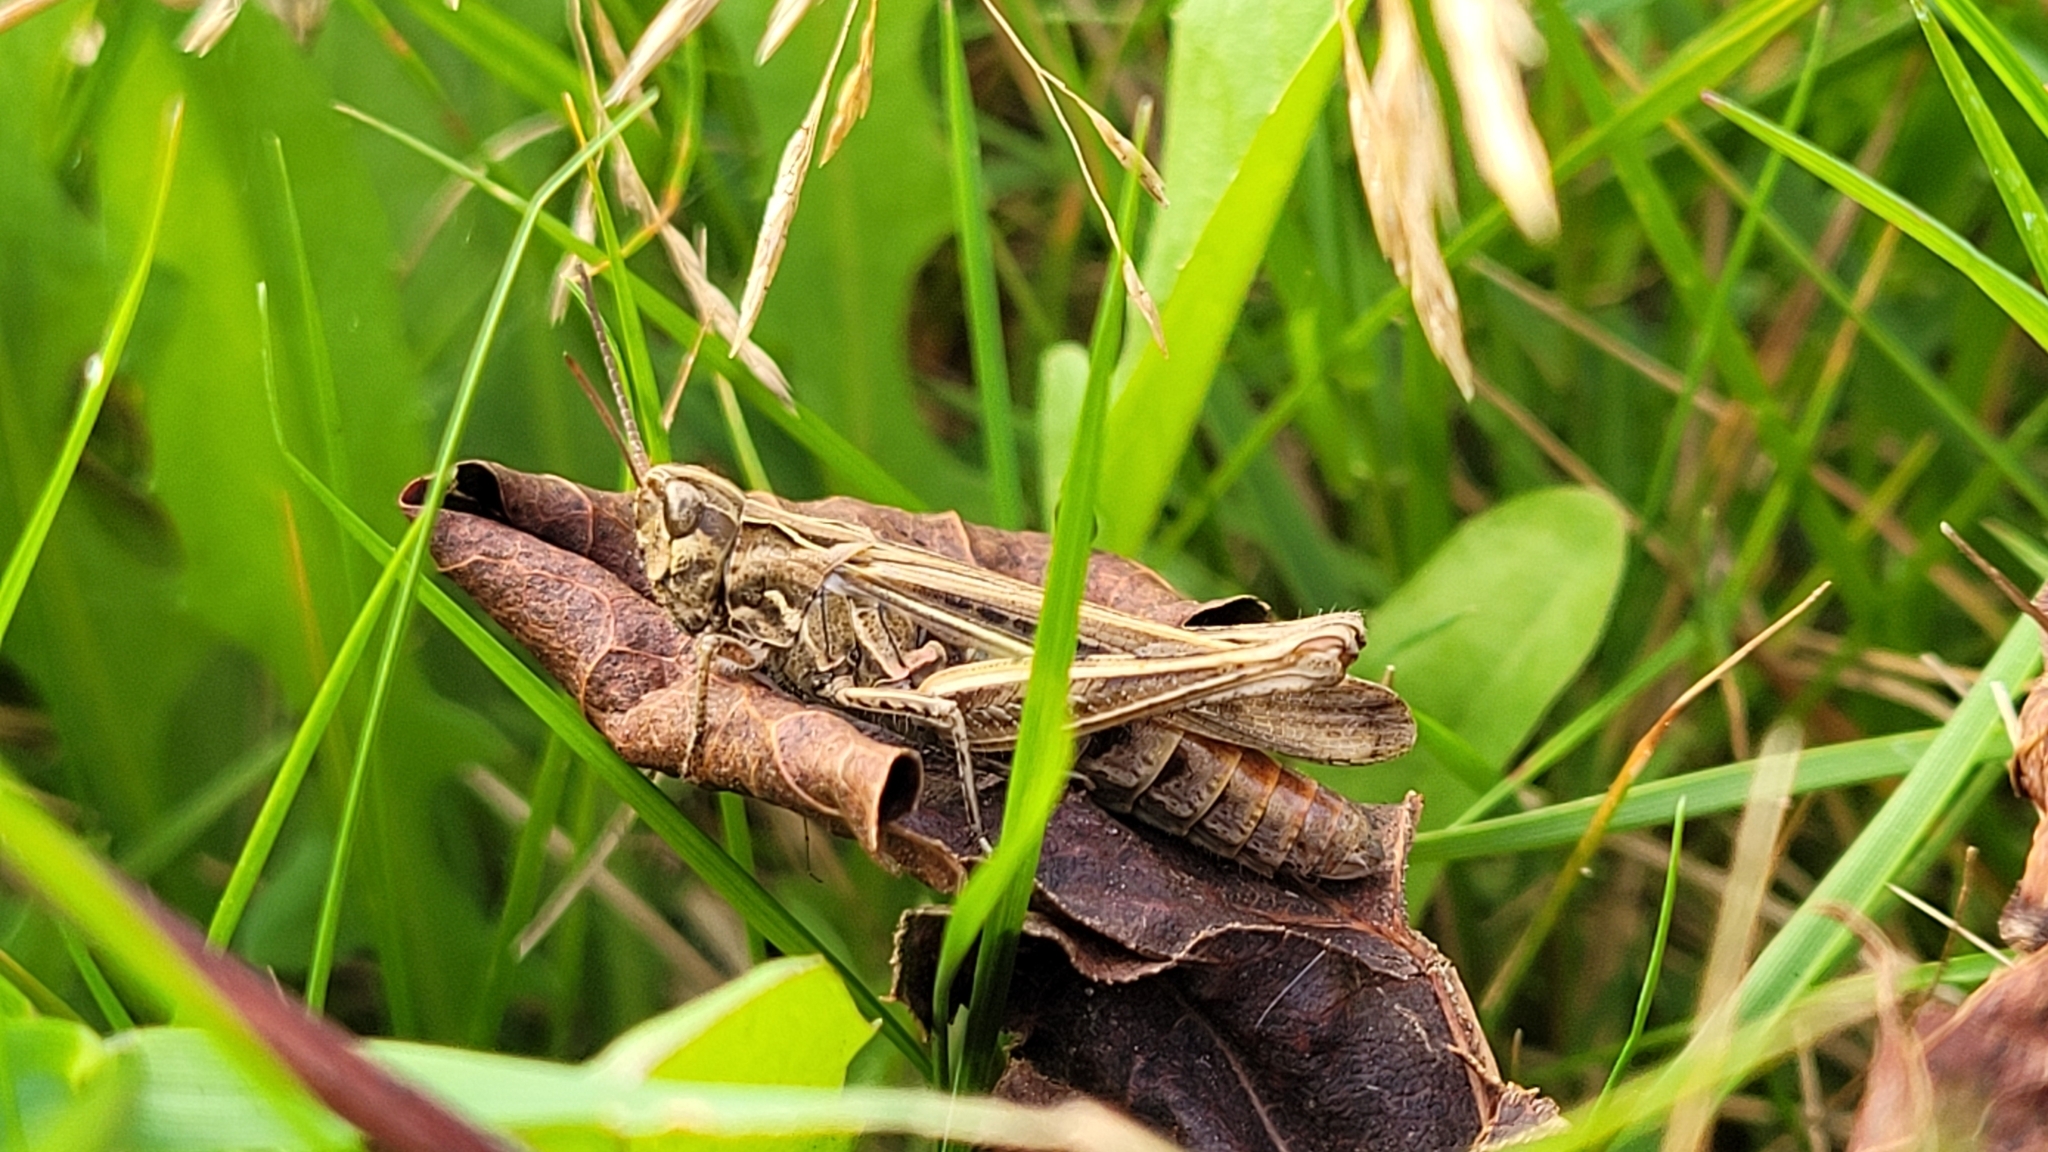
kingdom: Animalia
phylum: Arthropoda
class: Insecta
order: Orthoptera
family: Acrididae
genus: Chorthippus
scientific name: Chorthippus brunneus
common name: Field grasshopper
